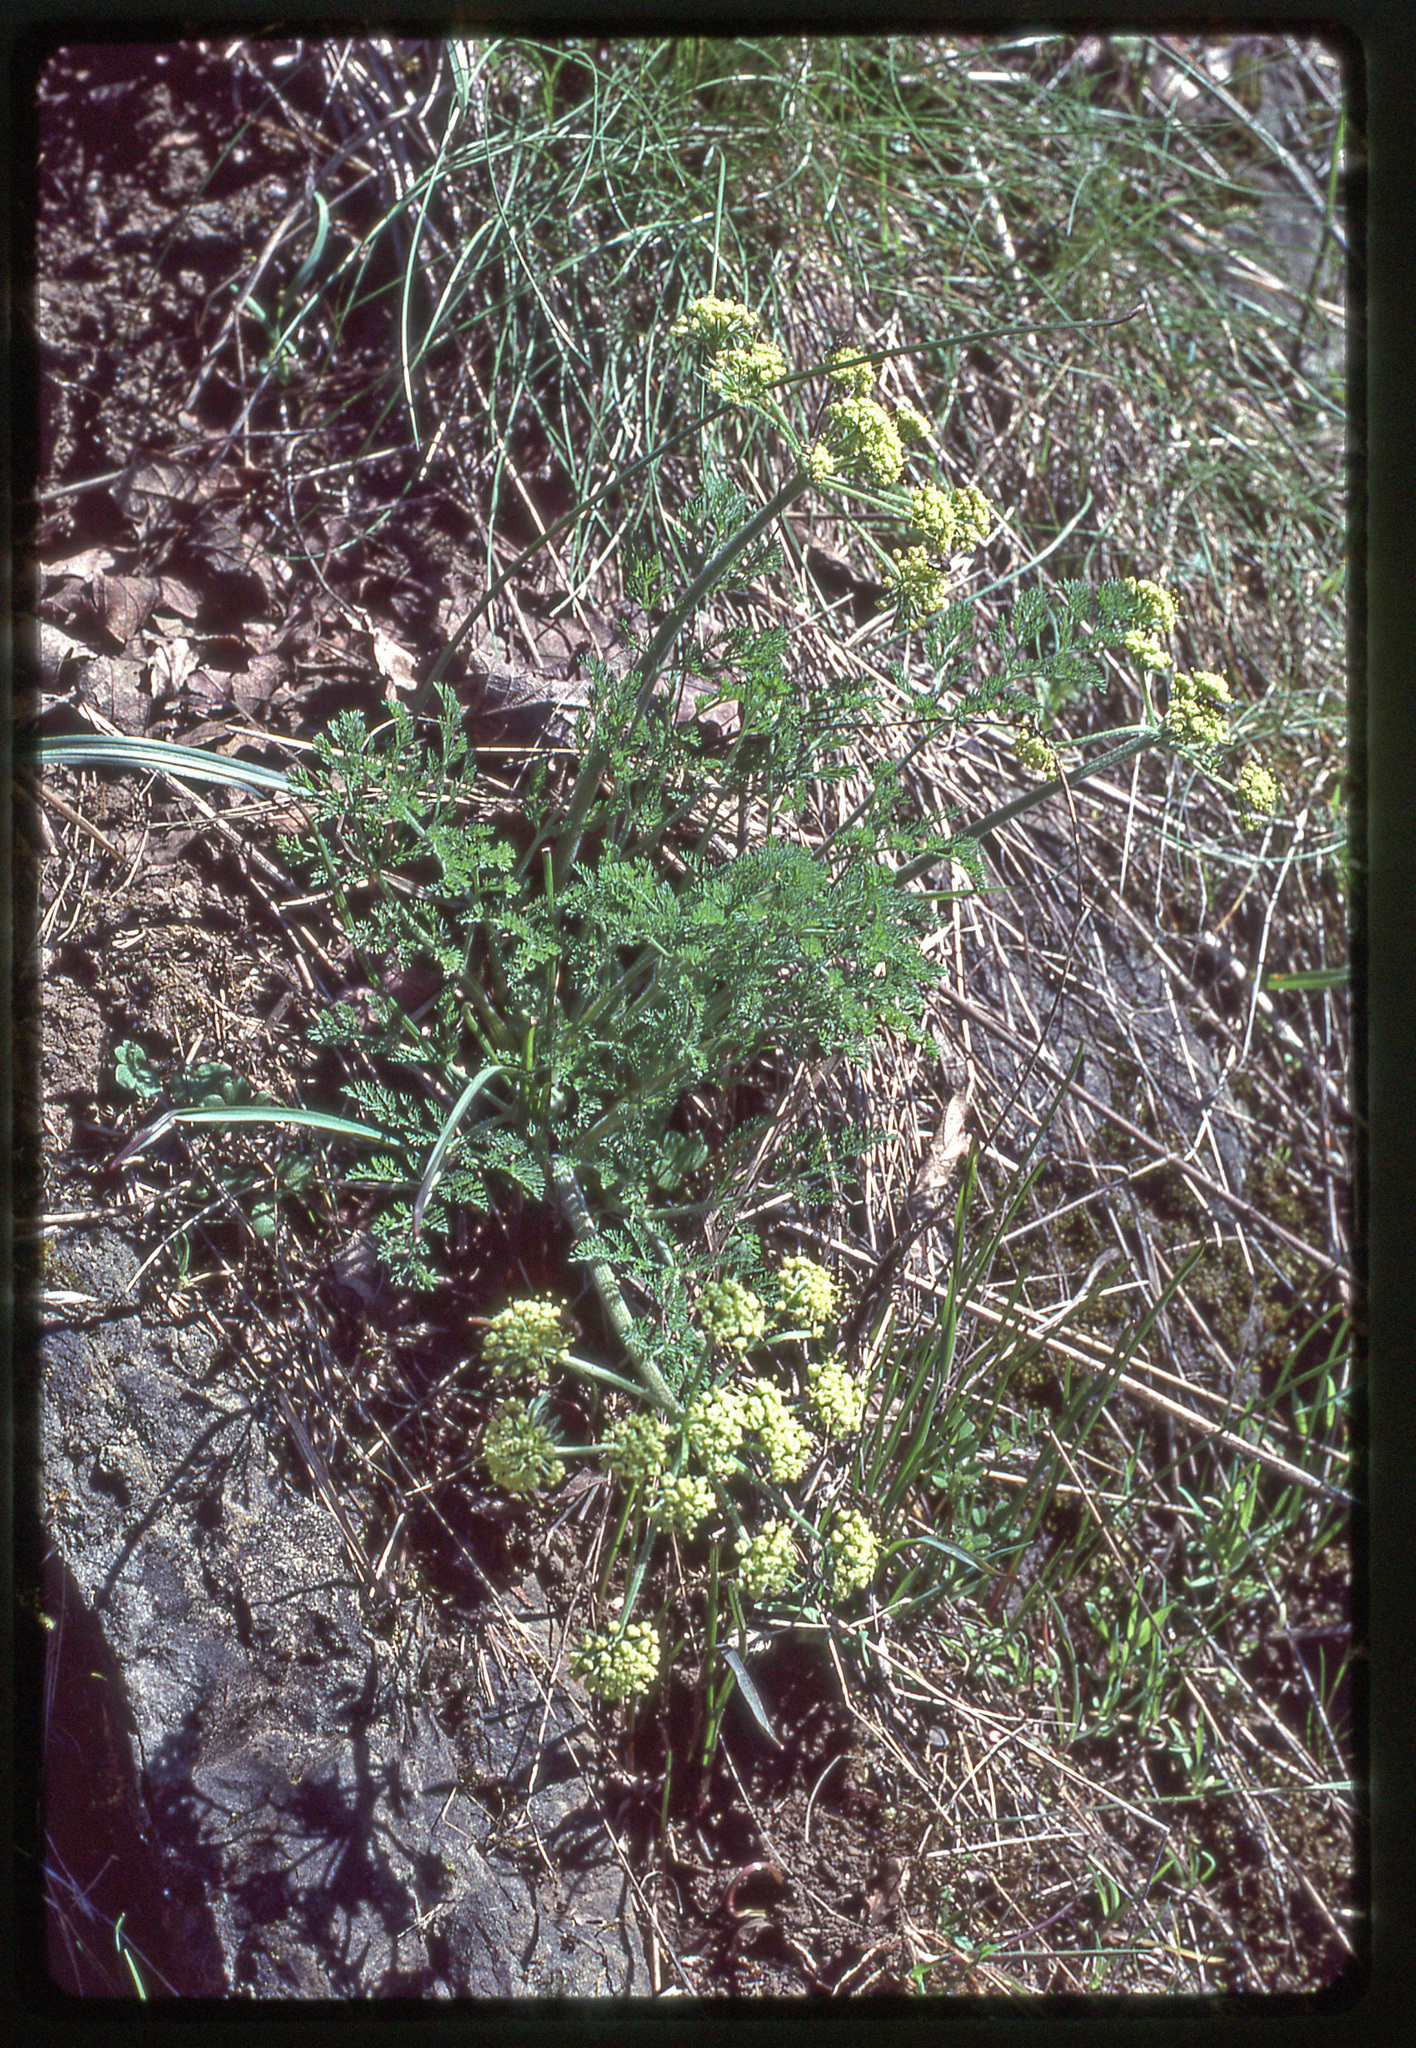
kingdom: Plantae
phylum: Tracheophyta
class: Magnoliopsida
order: Apiales
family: Apiaceae
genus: Lomatium
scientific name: Lomatium macrocarpum
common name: Big-seed biscuitroot
